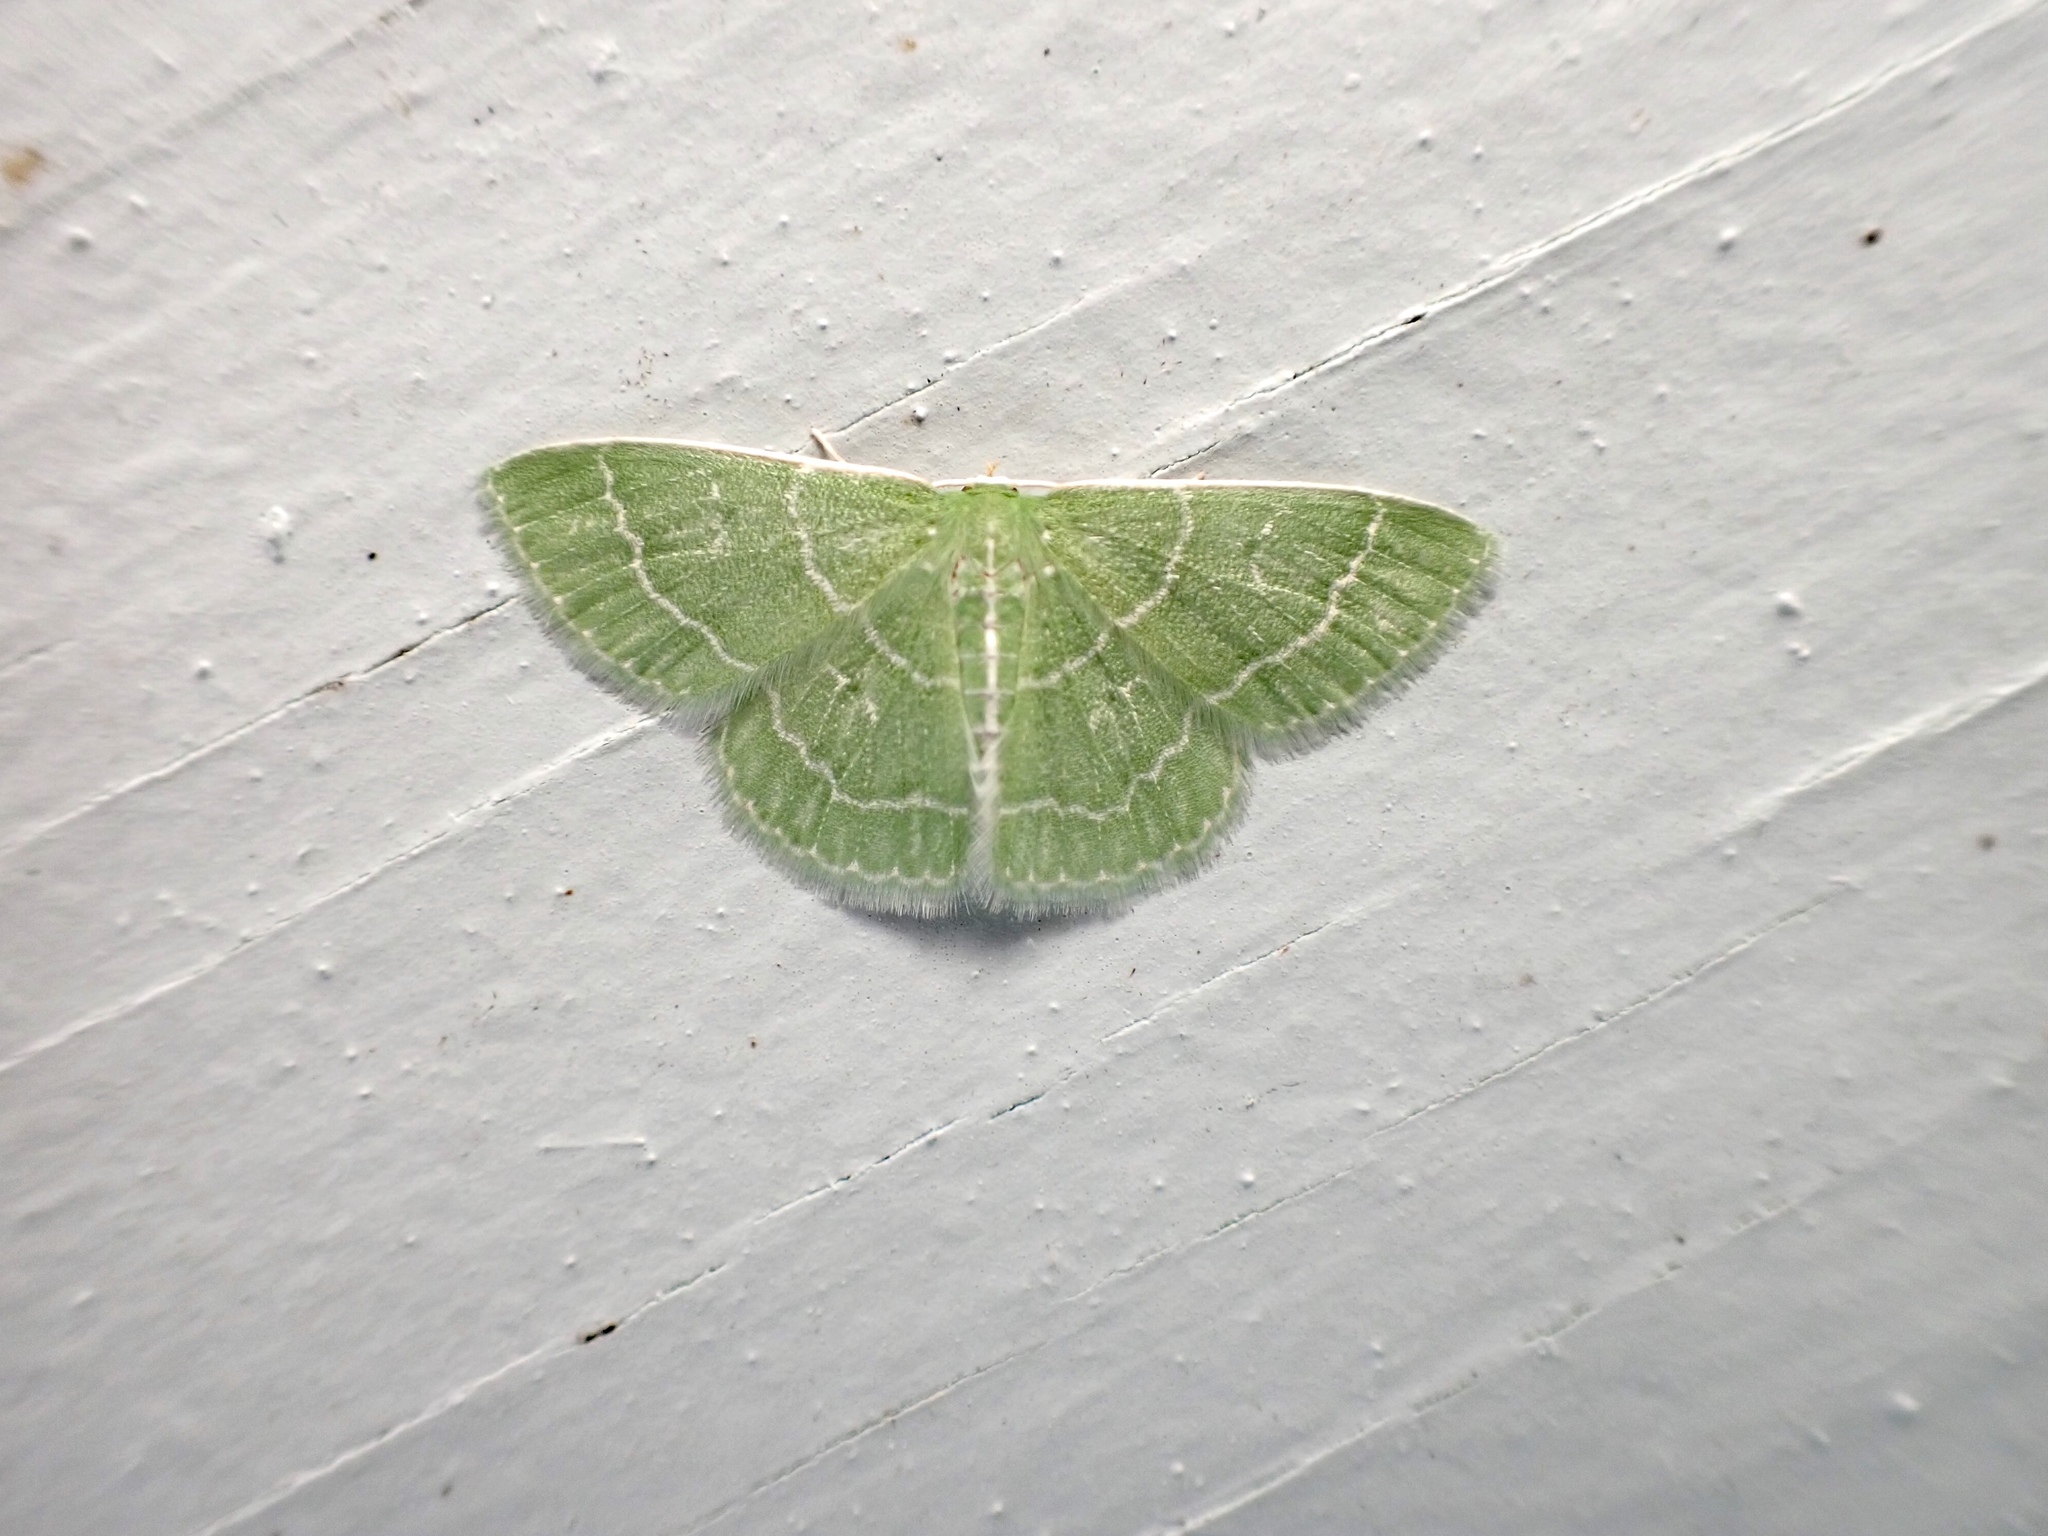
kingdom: Animalia
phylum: Arthropoda
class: Insecta
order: Lepidoptera
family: Geometridae
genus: Synchlora
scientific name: Synchlora aerata
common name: Wavy-lined emerald
